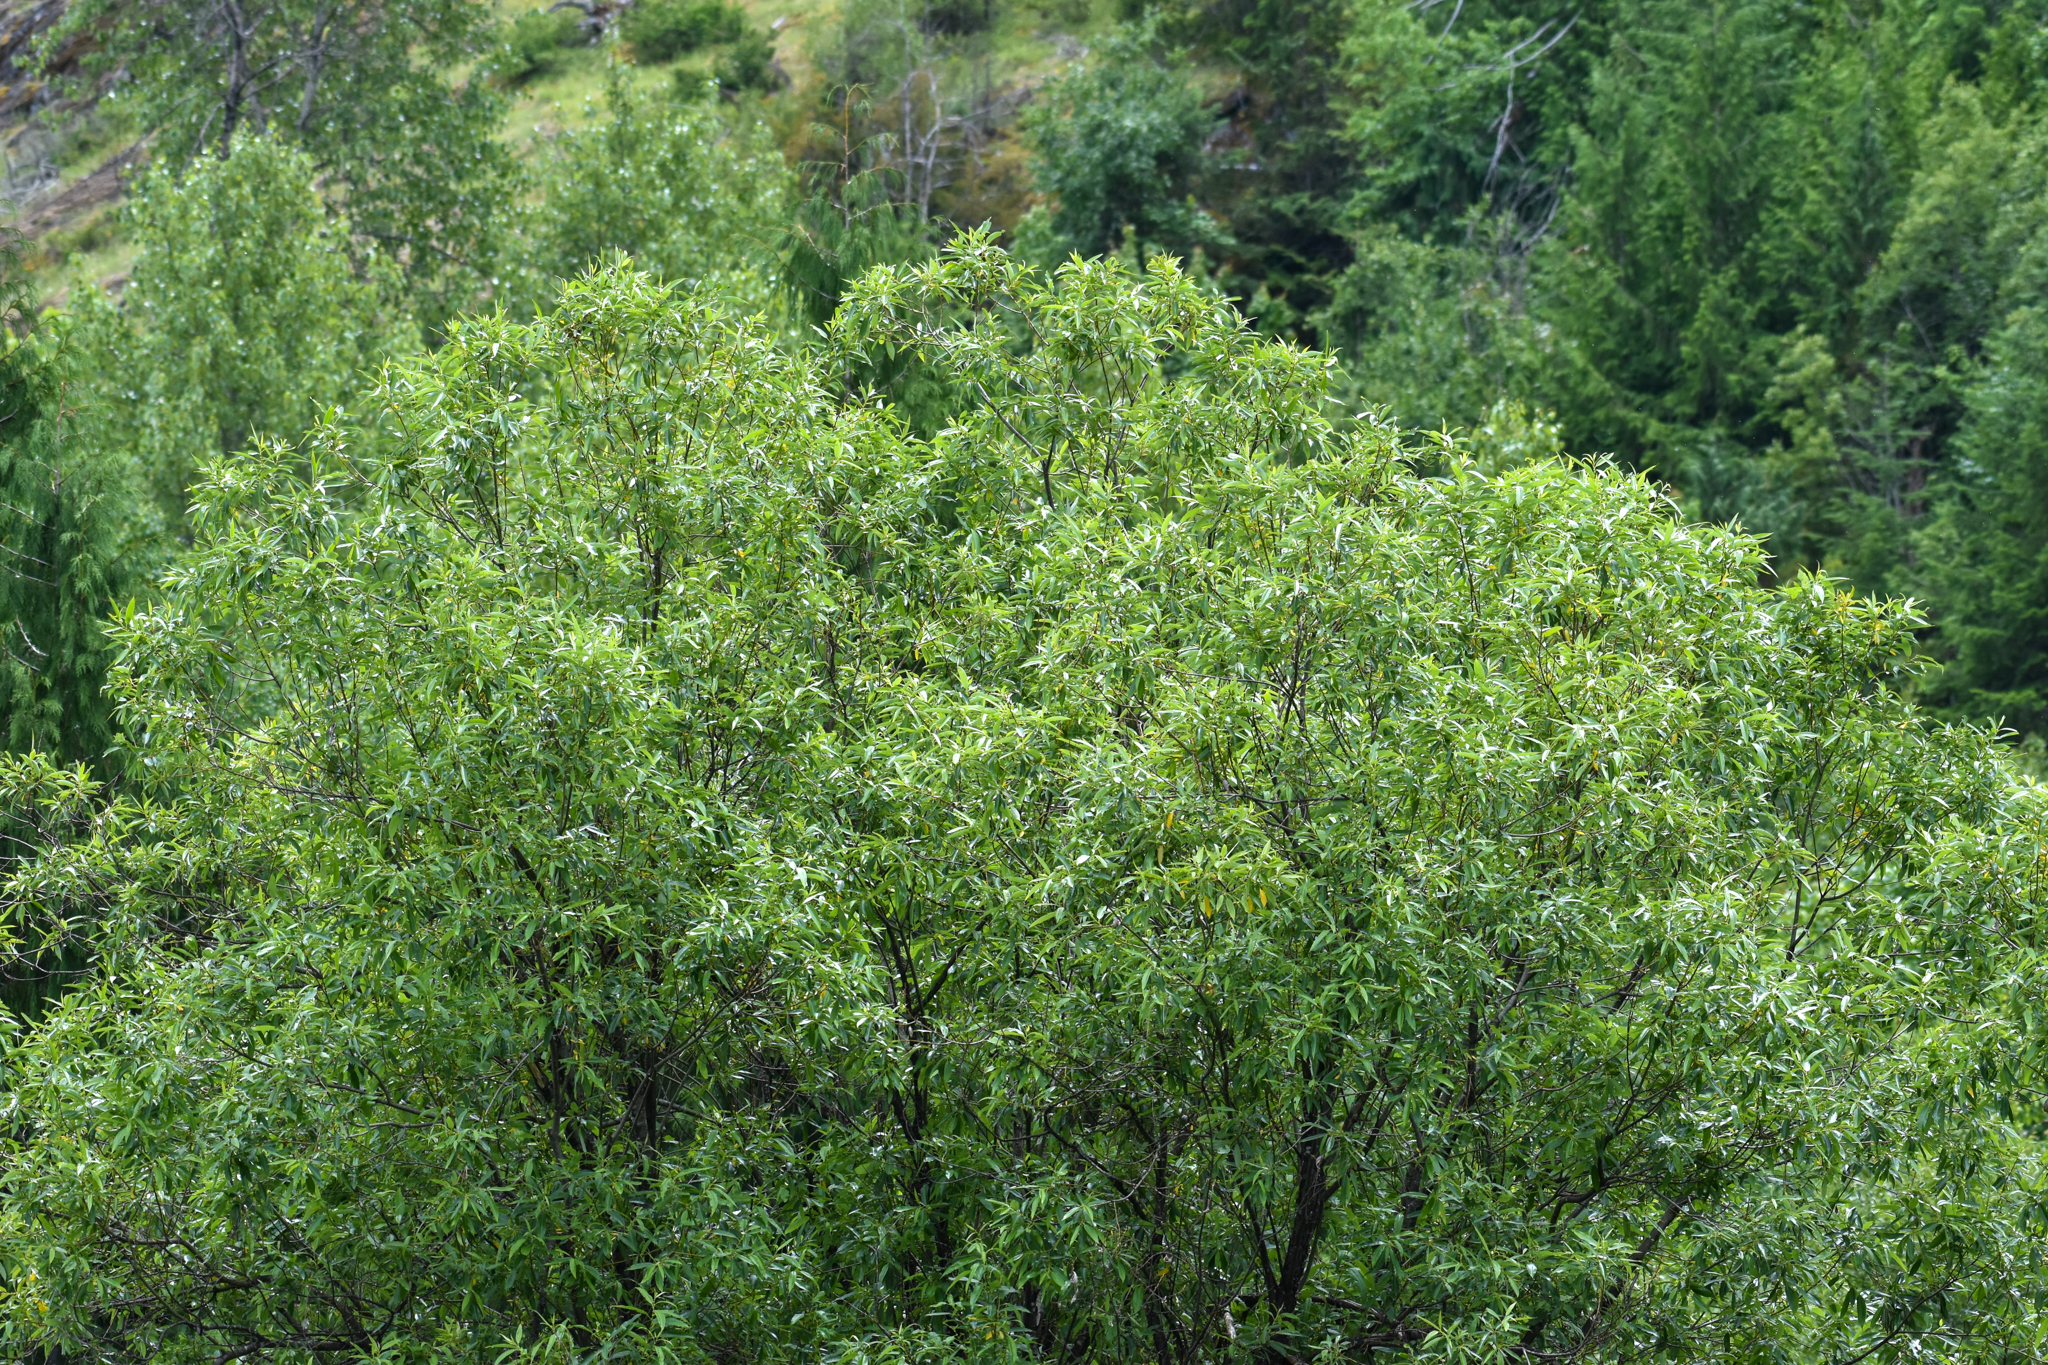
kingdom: Plantae
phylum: Tracheophyta
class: Magnoliopsida
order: Malpighiales
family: Salicaceae
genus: Salix
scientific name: Salix lucida
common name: Shining willow
